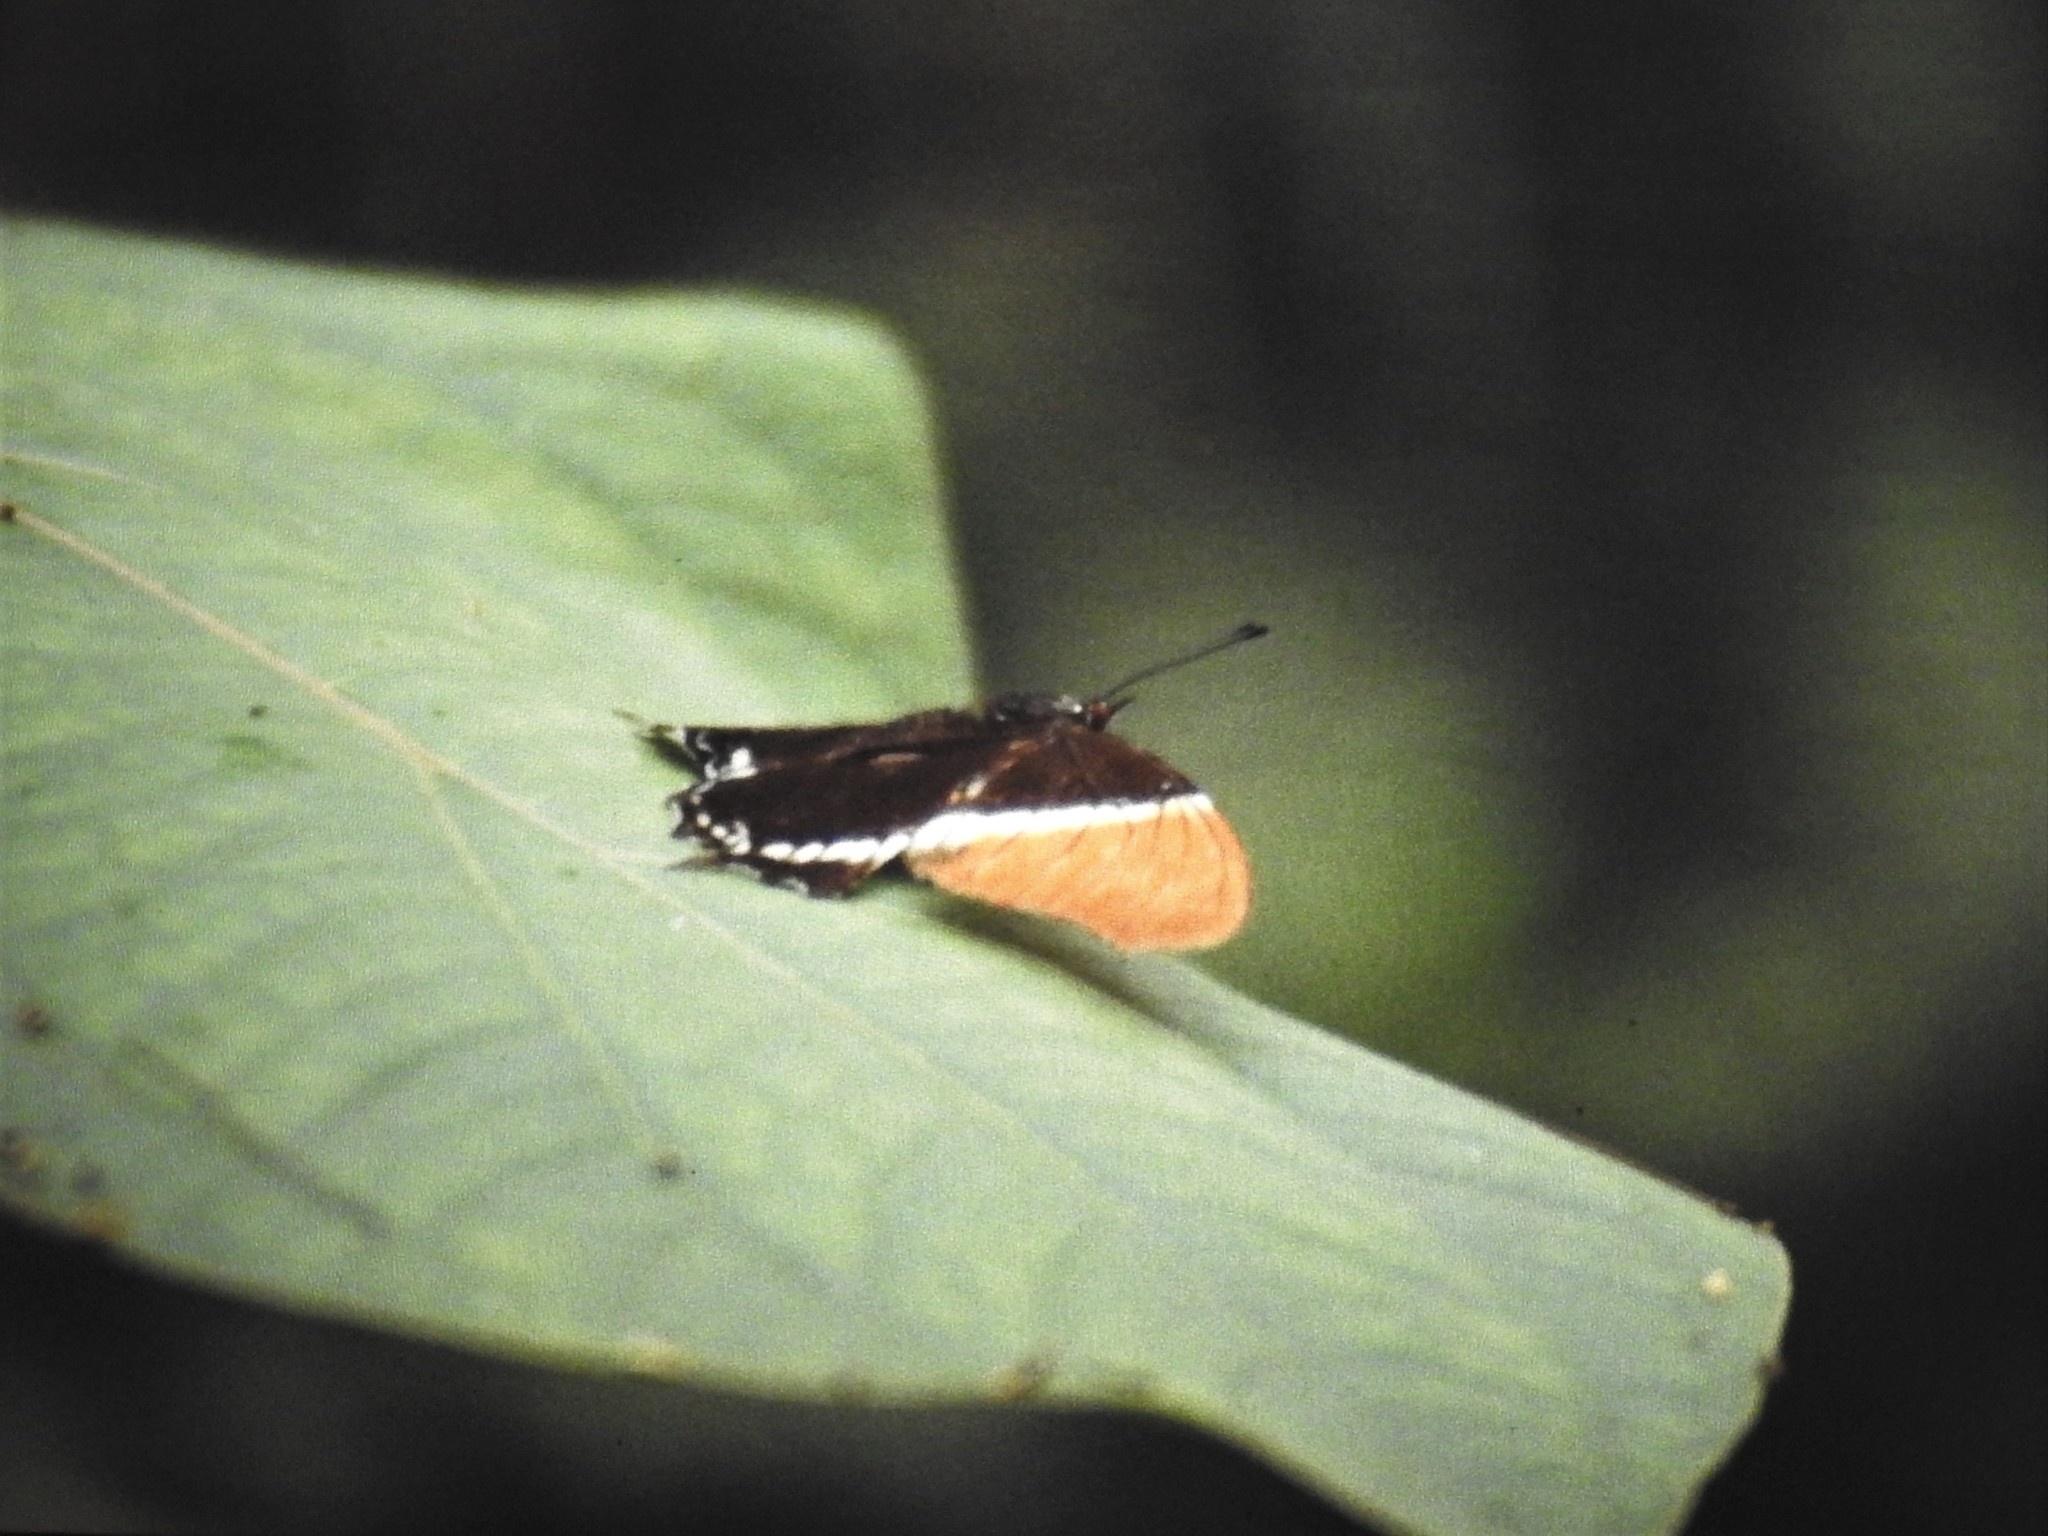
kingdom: Animalia
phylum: Arthropoda
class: Insecta
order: Lepidoptera
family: Nymphalidae
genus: Siproeta
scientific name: Siproeta epaphus
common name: Rusty-tipped page
